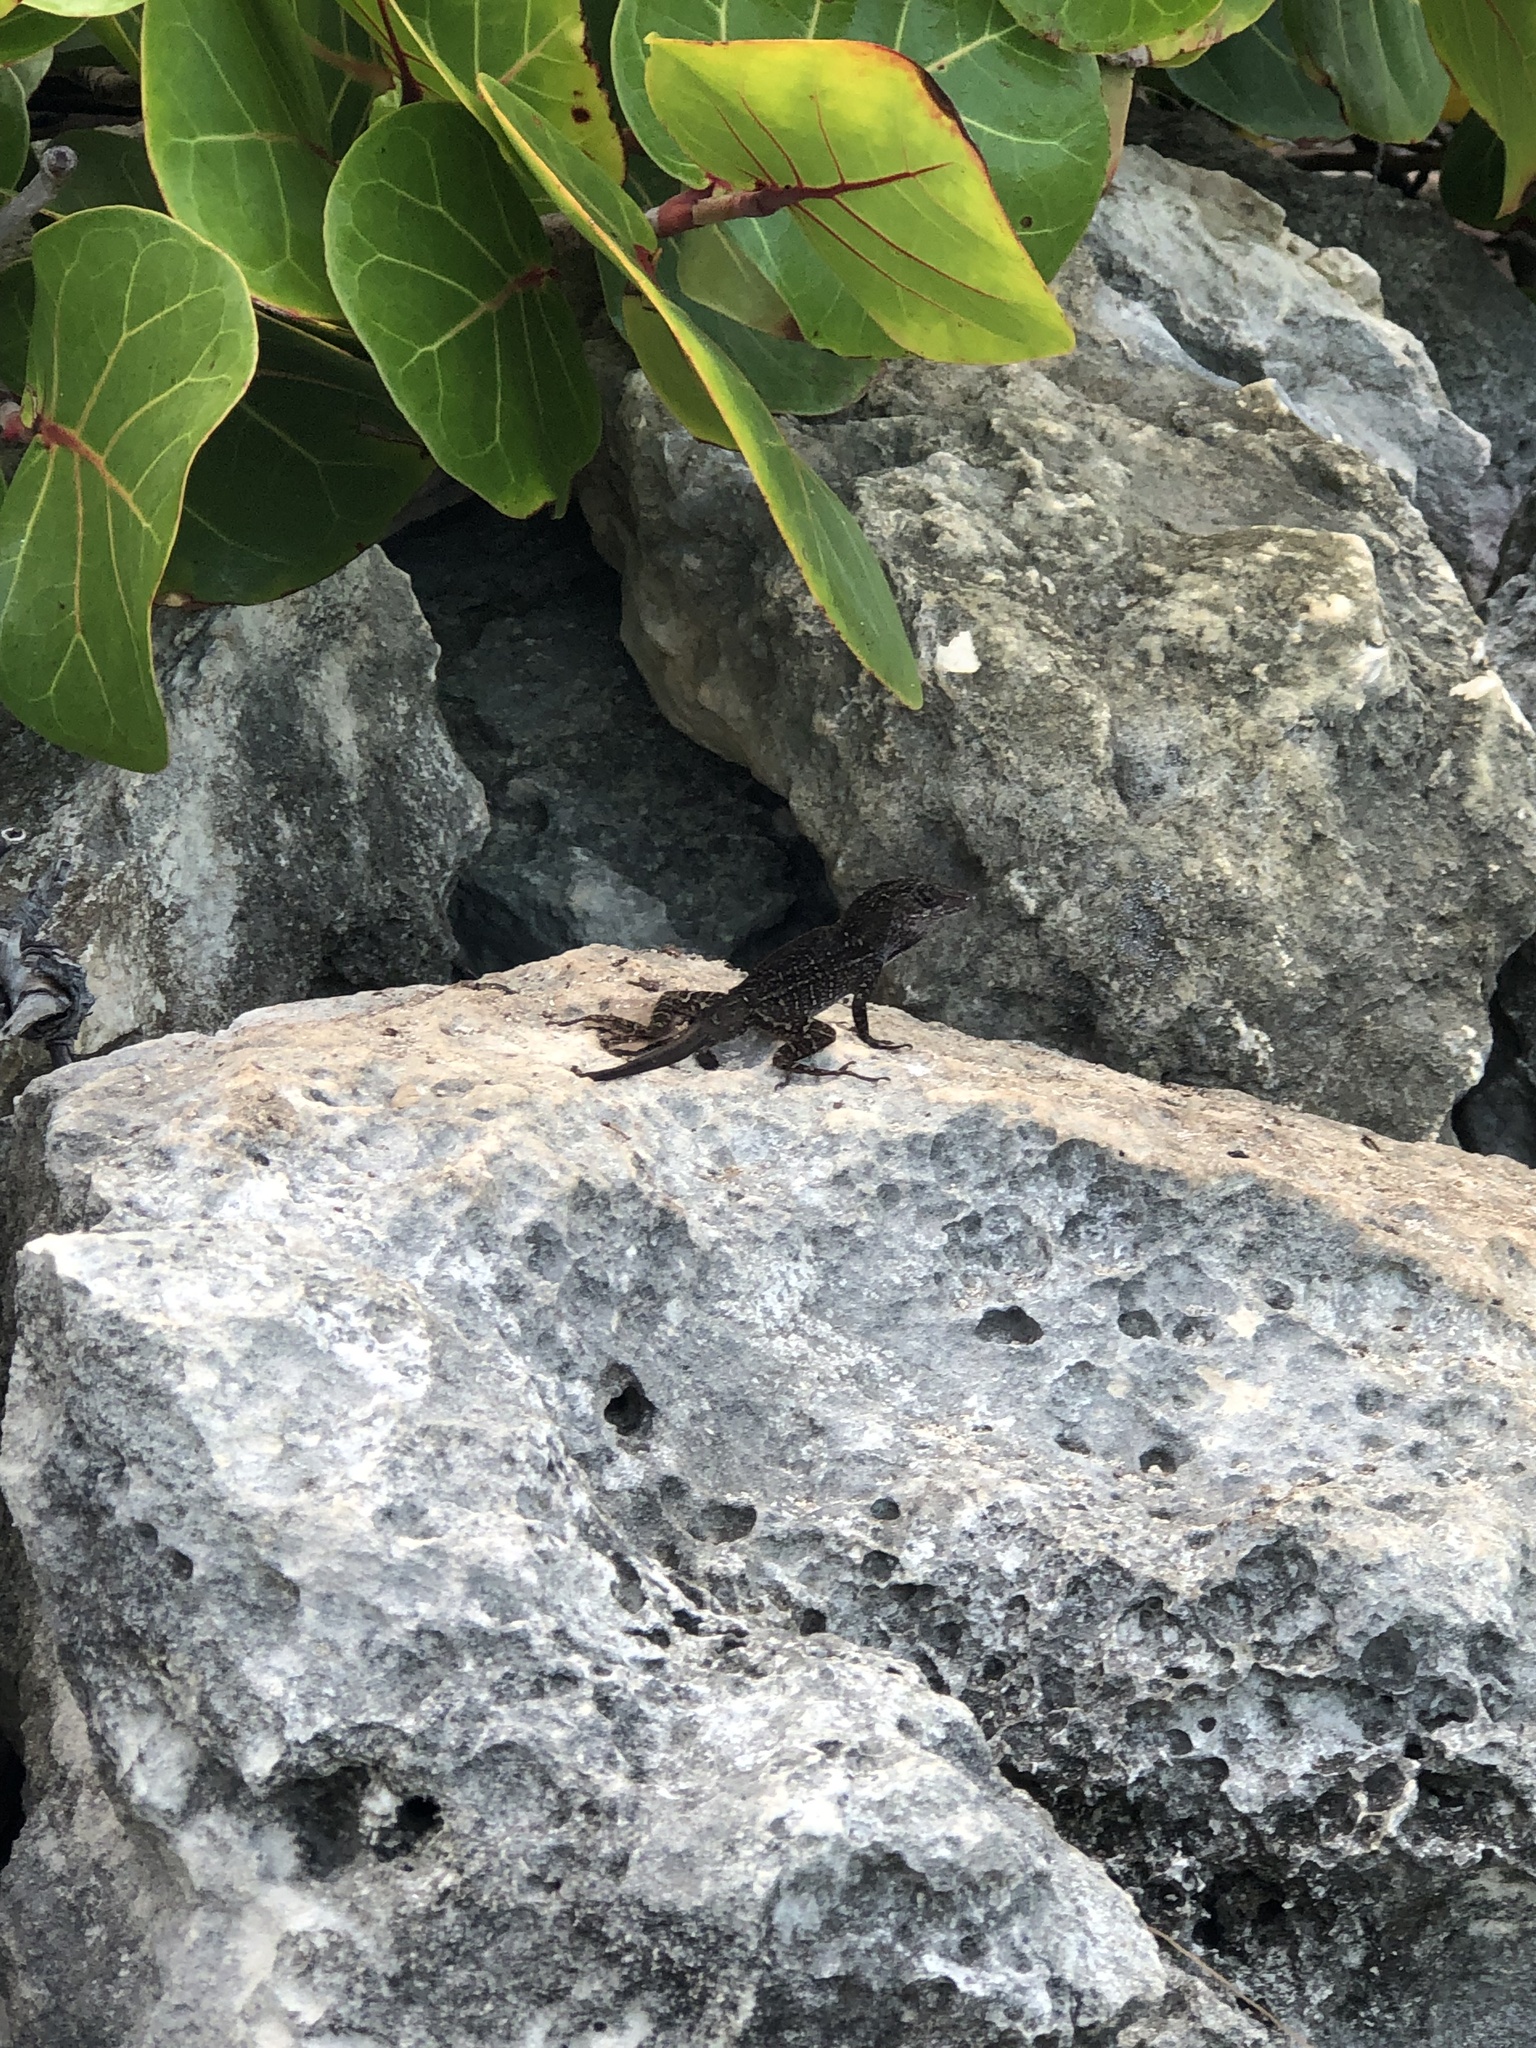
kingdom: Animalia
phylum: Chordata
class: Squamata
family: Dactyloidae
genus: Anolis
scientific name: Anolis sagrei
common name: Brown anole
